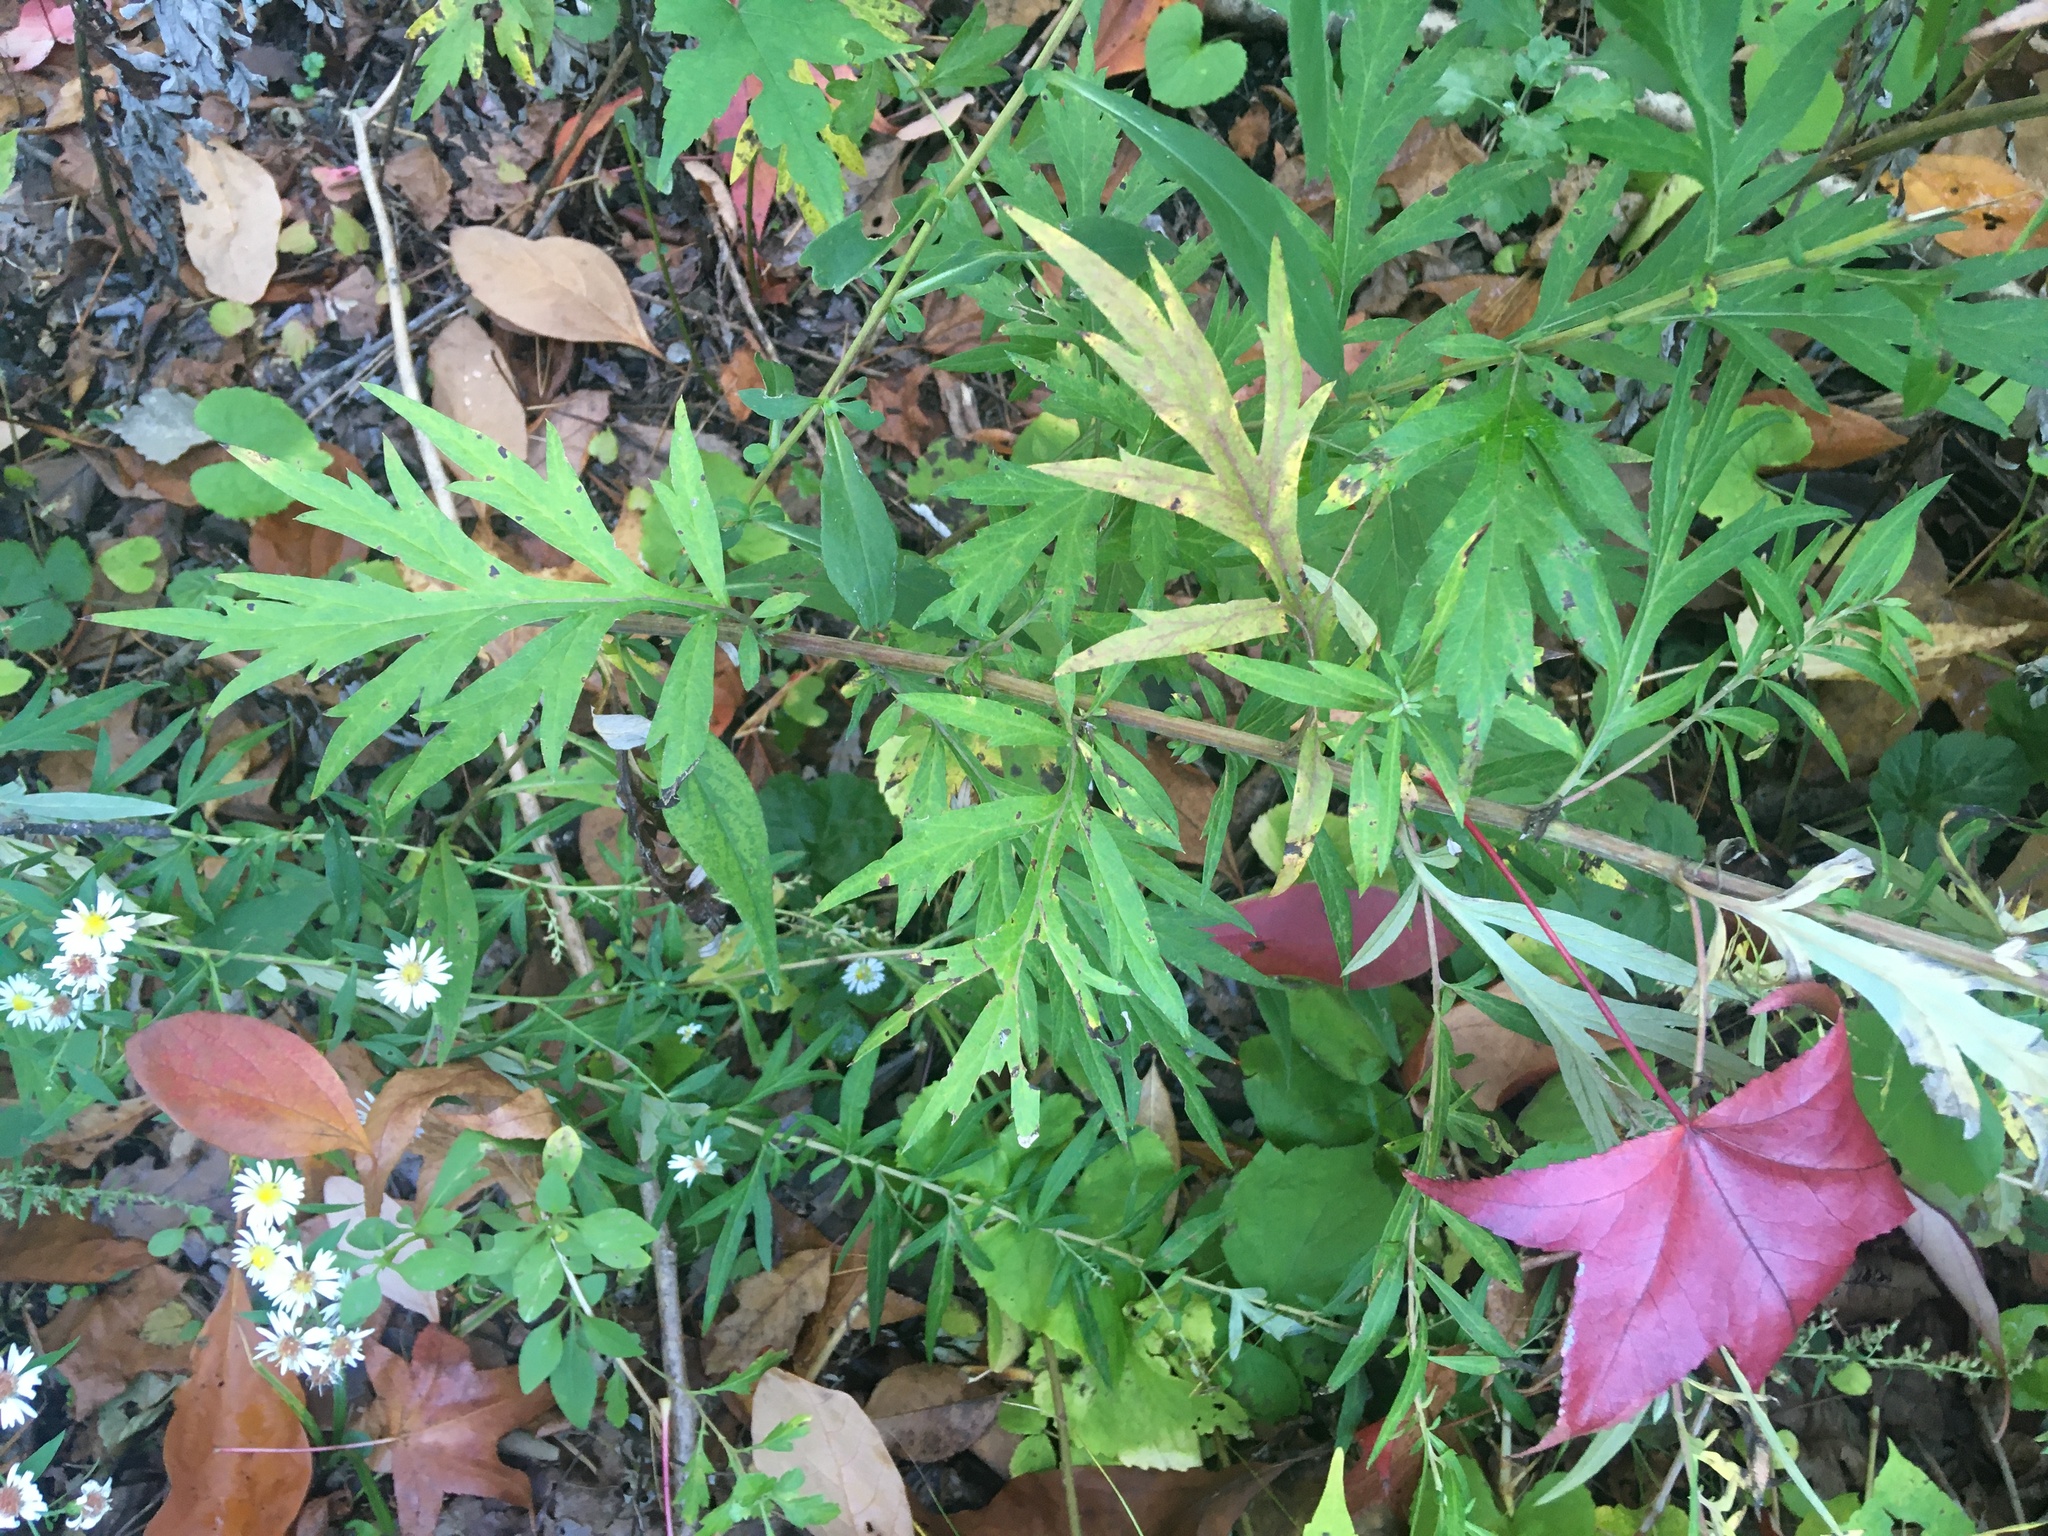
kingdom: Plantae
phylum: Tracheophyta
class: Magnoliopsida
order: Asterales
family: Asteraceae
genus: Artemisia
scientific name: Artemisia vulgaris
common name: Mugwort
